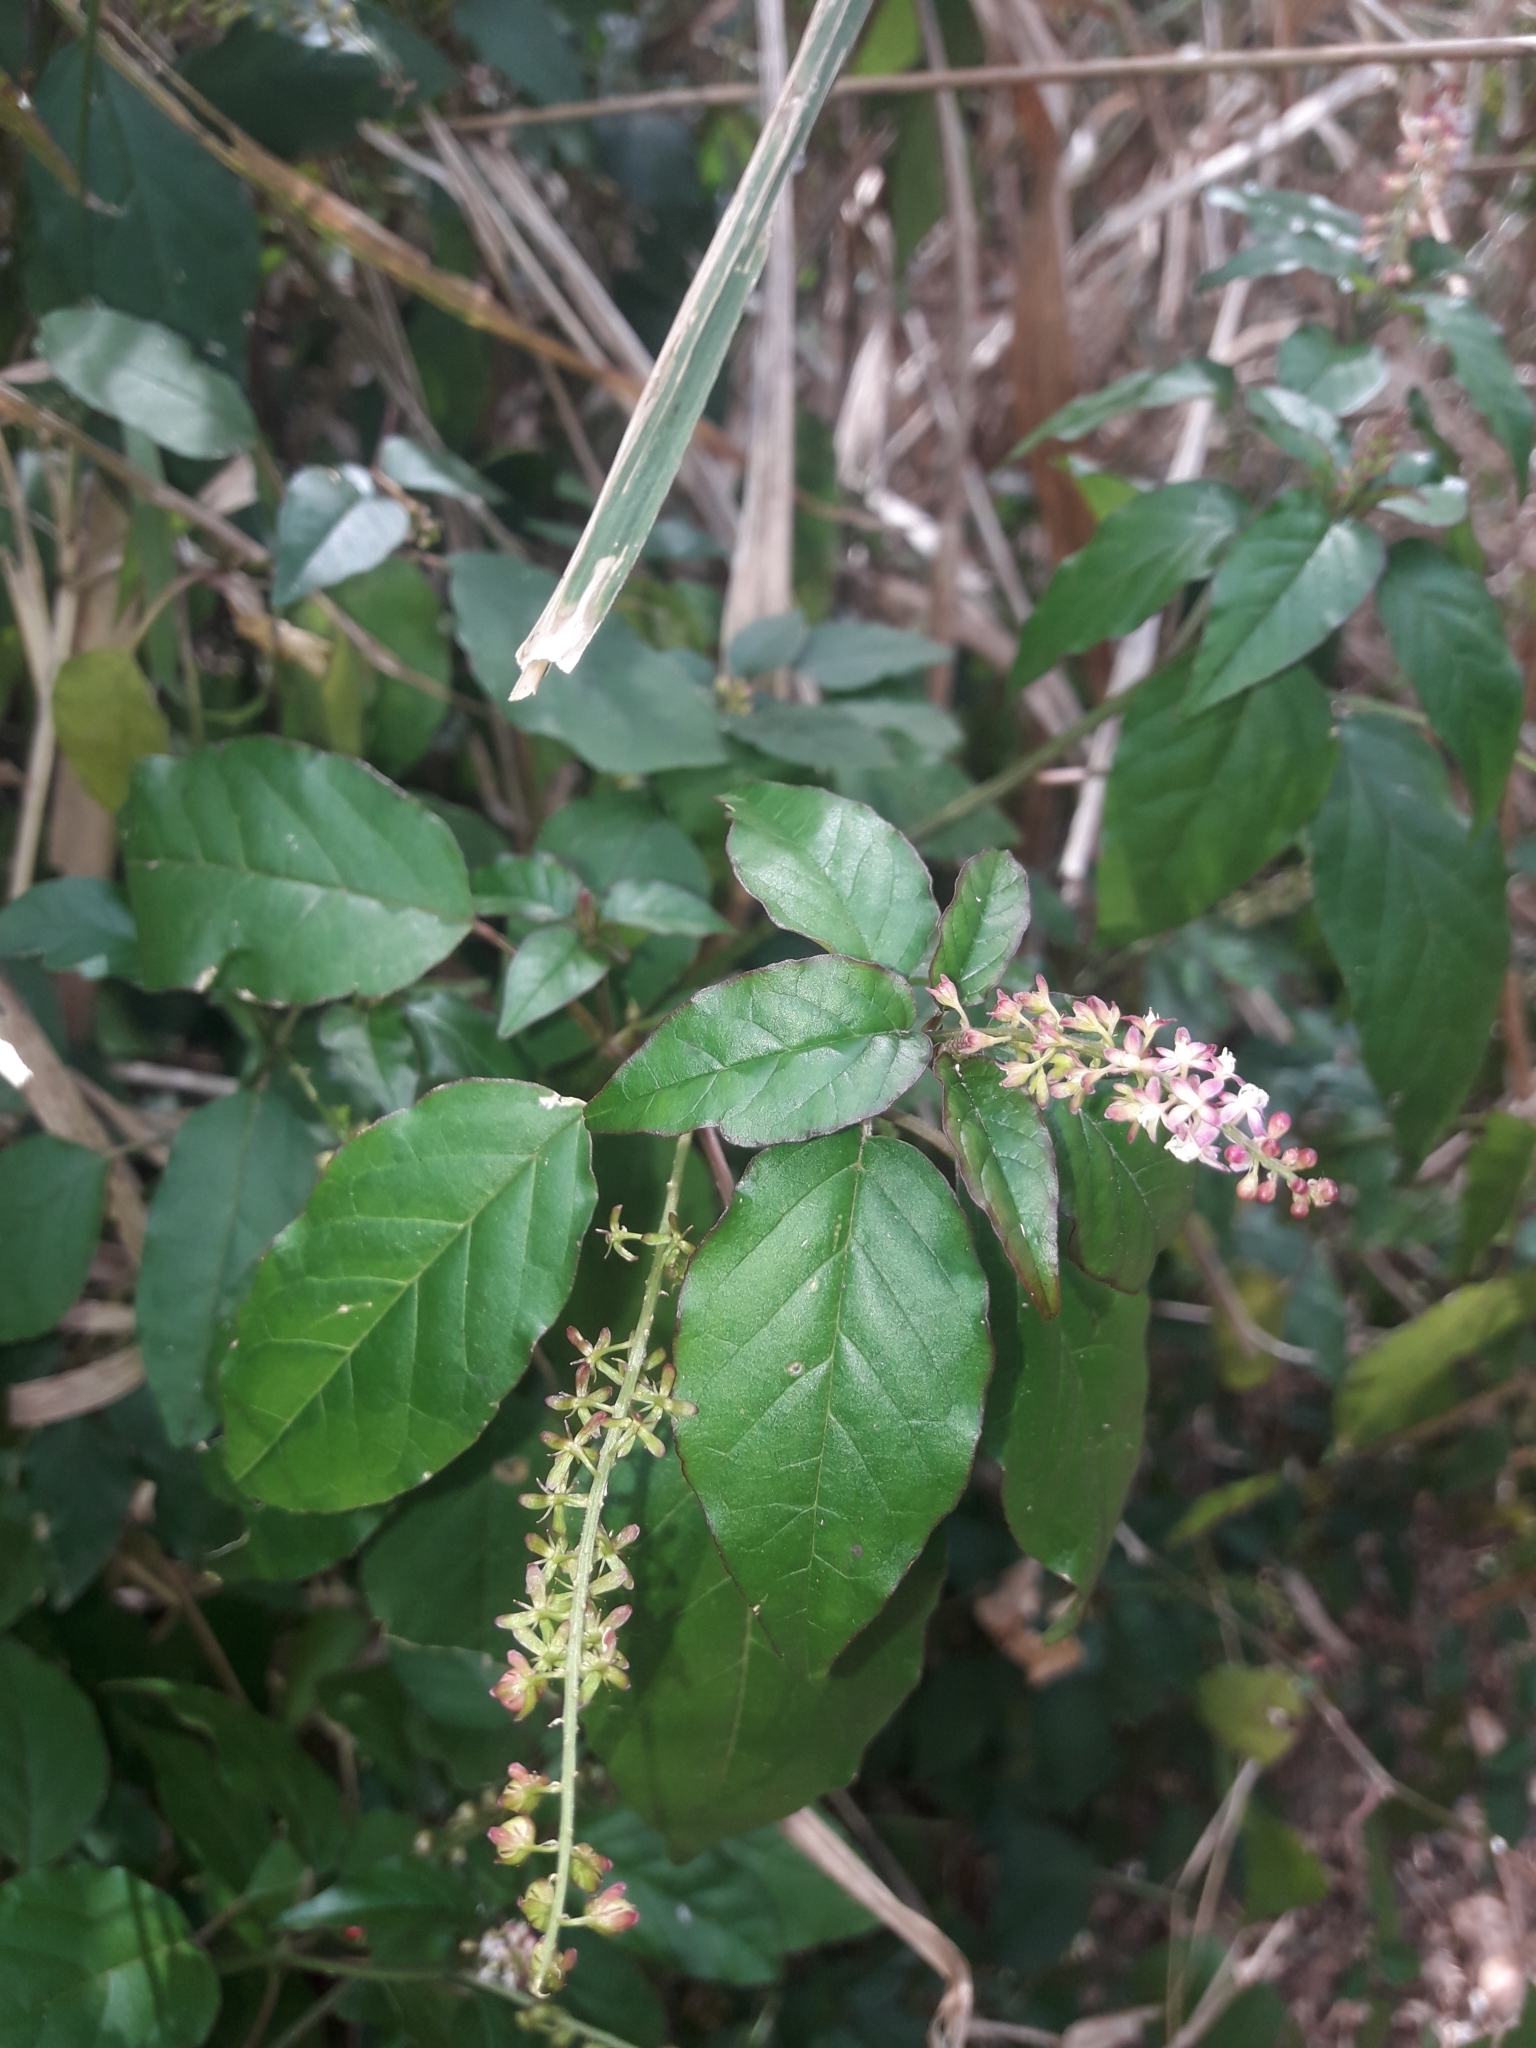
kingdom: Plantae
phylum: Tracheophyta
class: Magnoliopsida
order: Caryophyllales
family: Phytolaccaceae
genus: Rivina
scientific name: Rivina humilis
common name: Rougeplant
